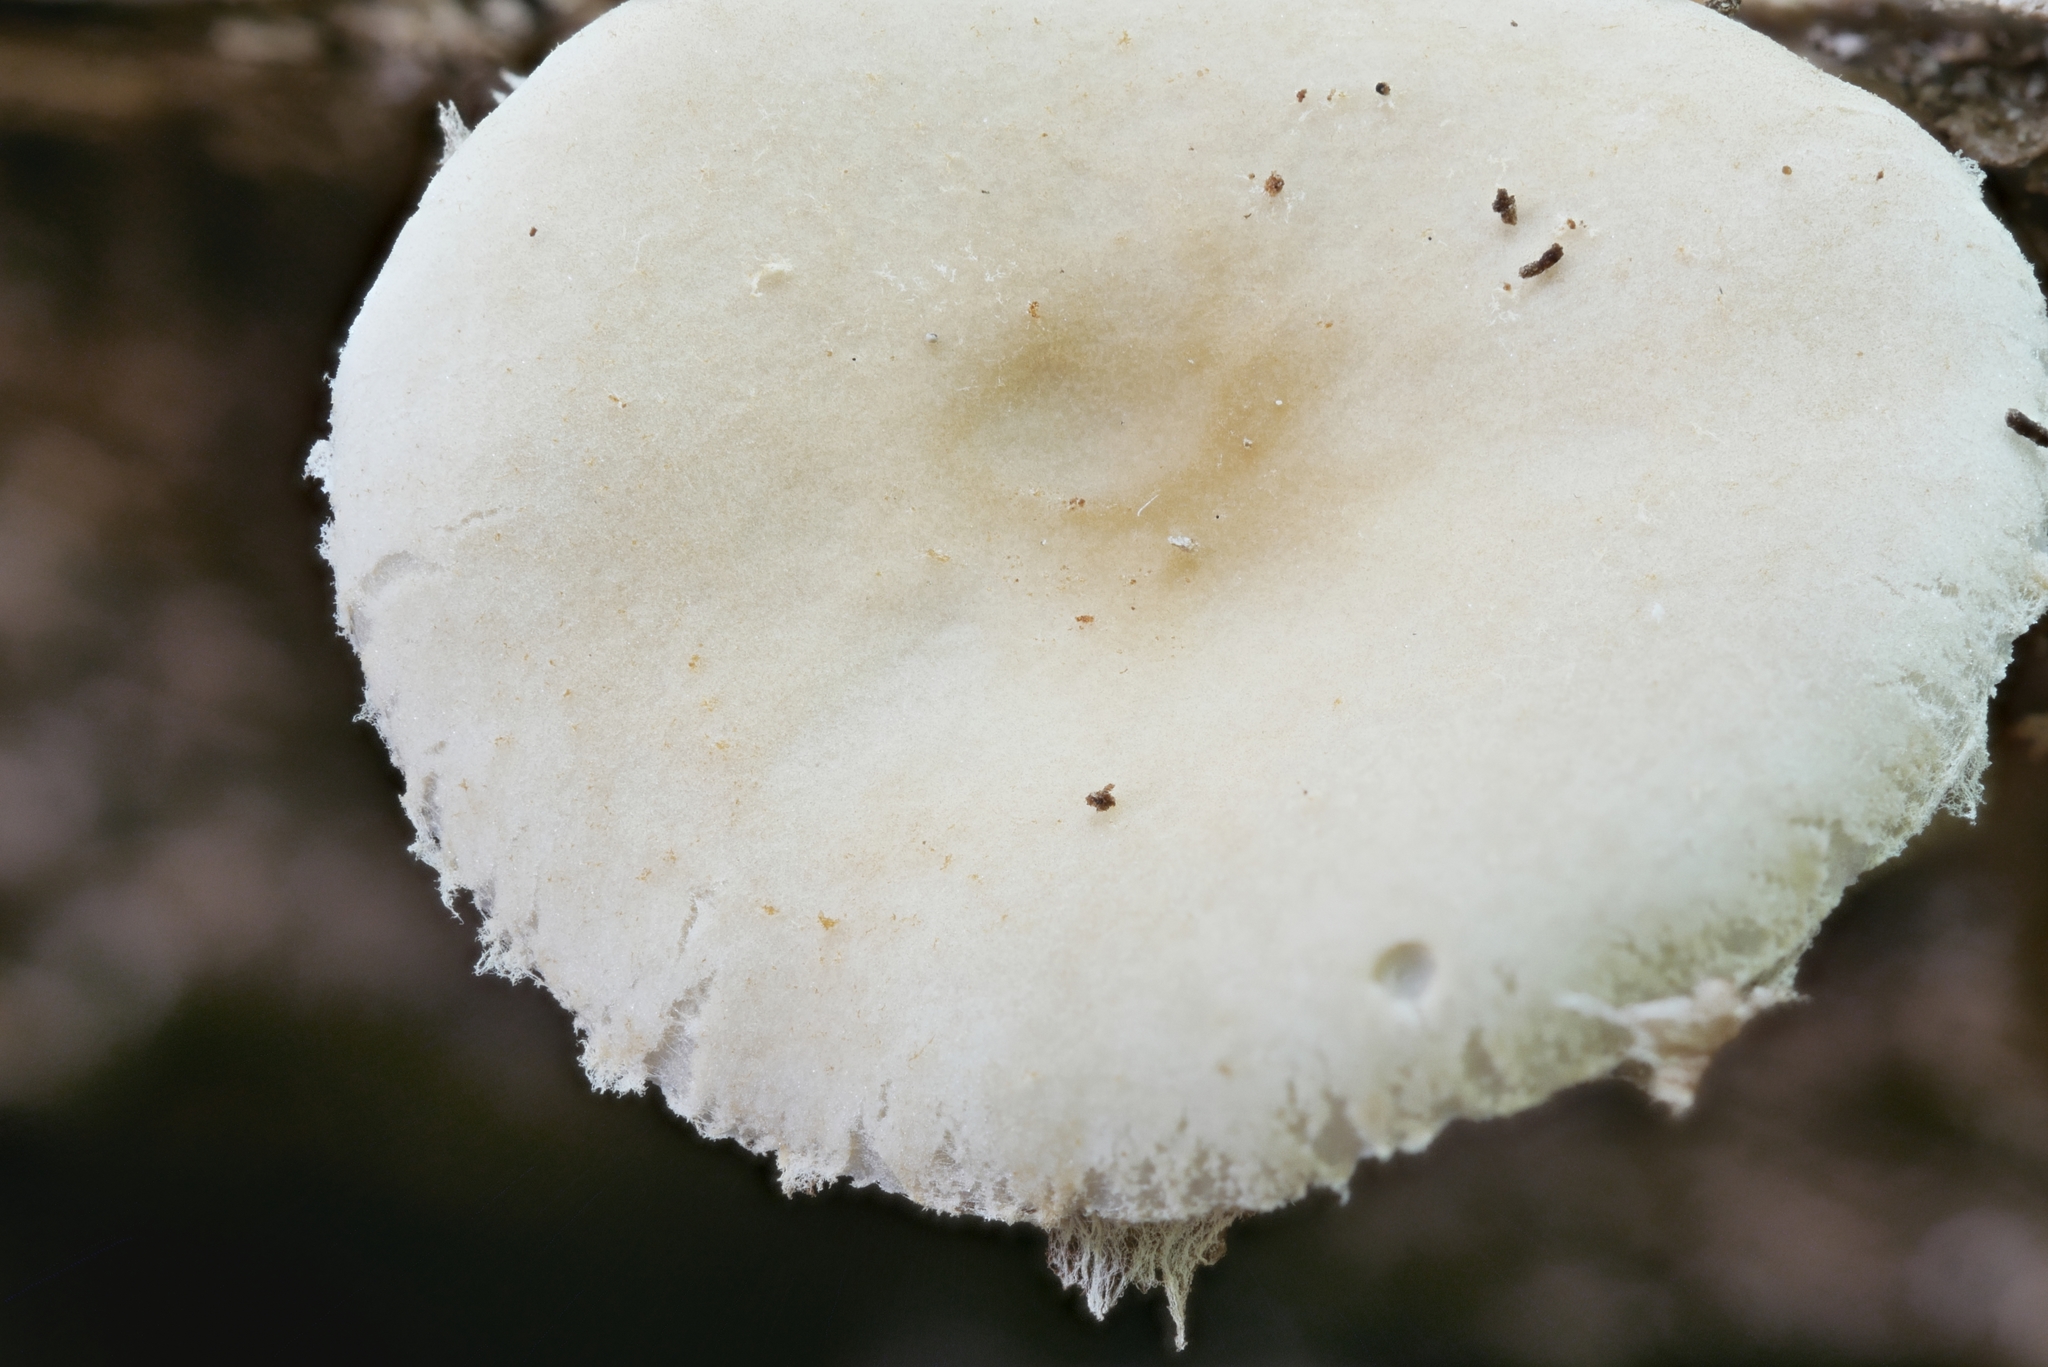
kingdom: Fungi
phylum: Basidiomycota
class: Agaricomycetes
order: Agaricales
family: Strophariaceae
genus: Agrocybe
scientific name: Agrocybe acericola
